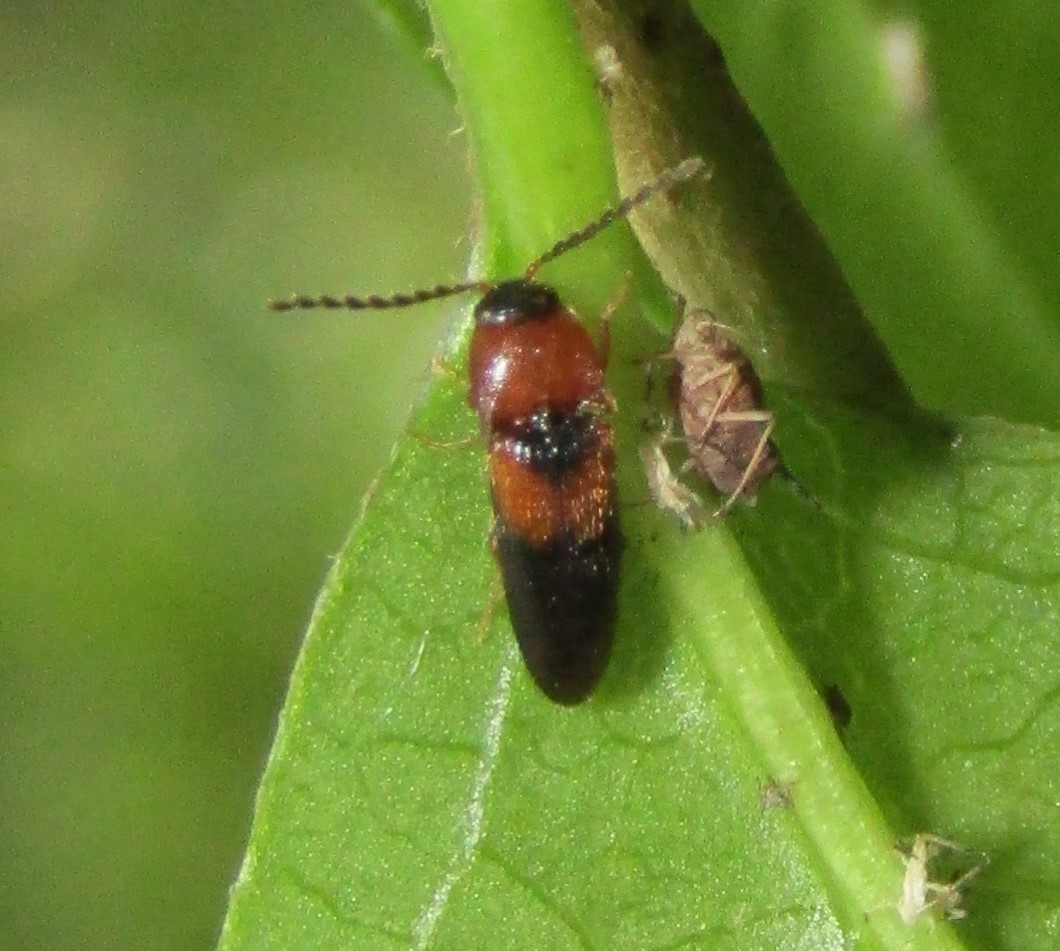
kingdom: Animalia
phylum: Arthropoda
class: Insecta
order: Coleoptera
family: Elateridae
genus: Ampedus
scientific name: Ampedus areolatus
